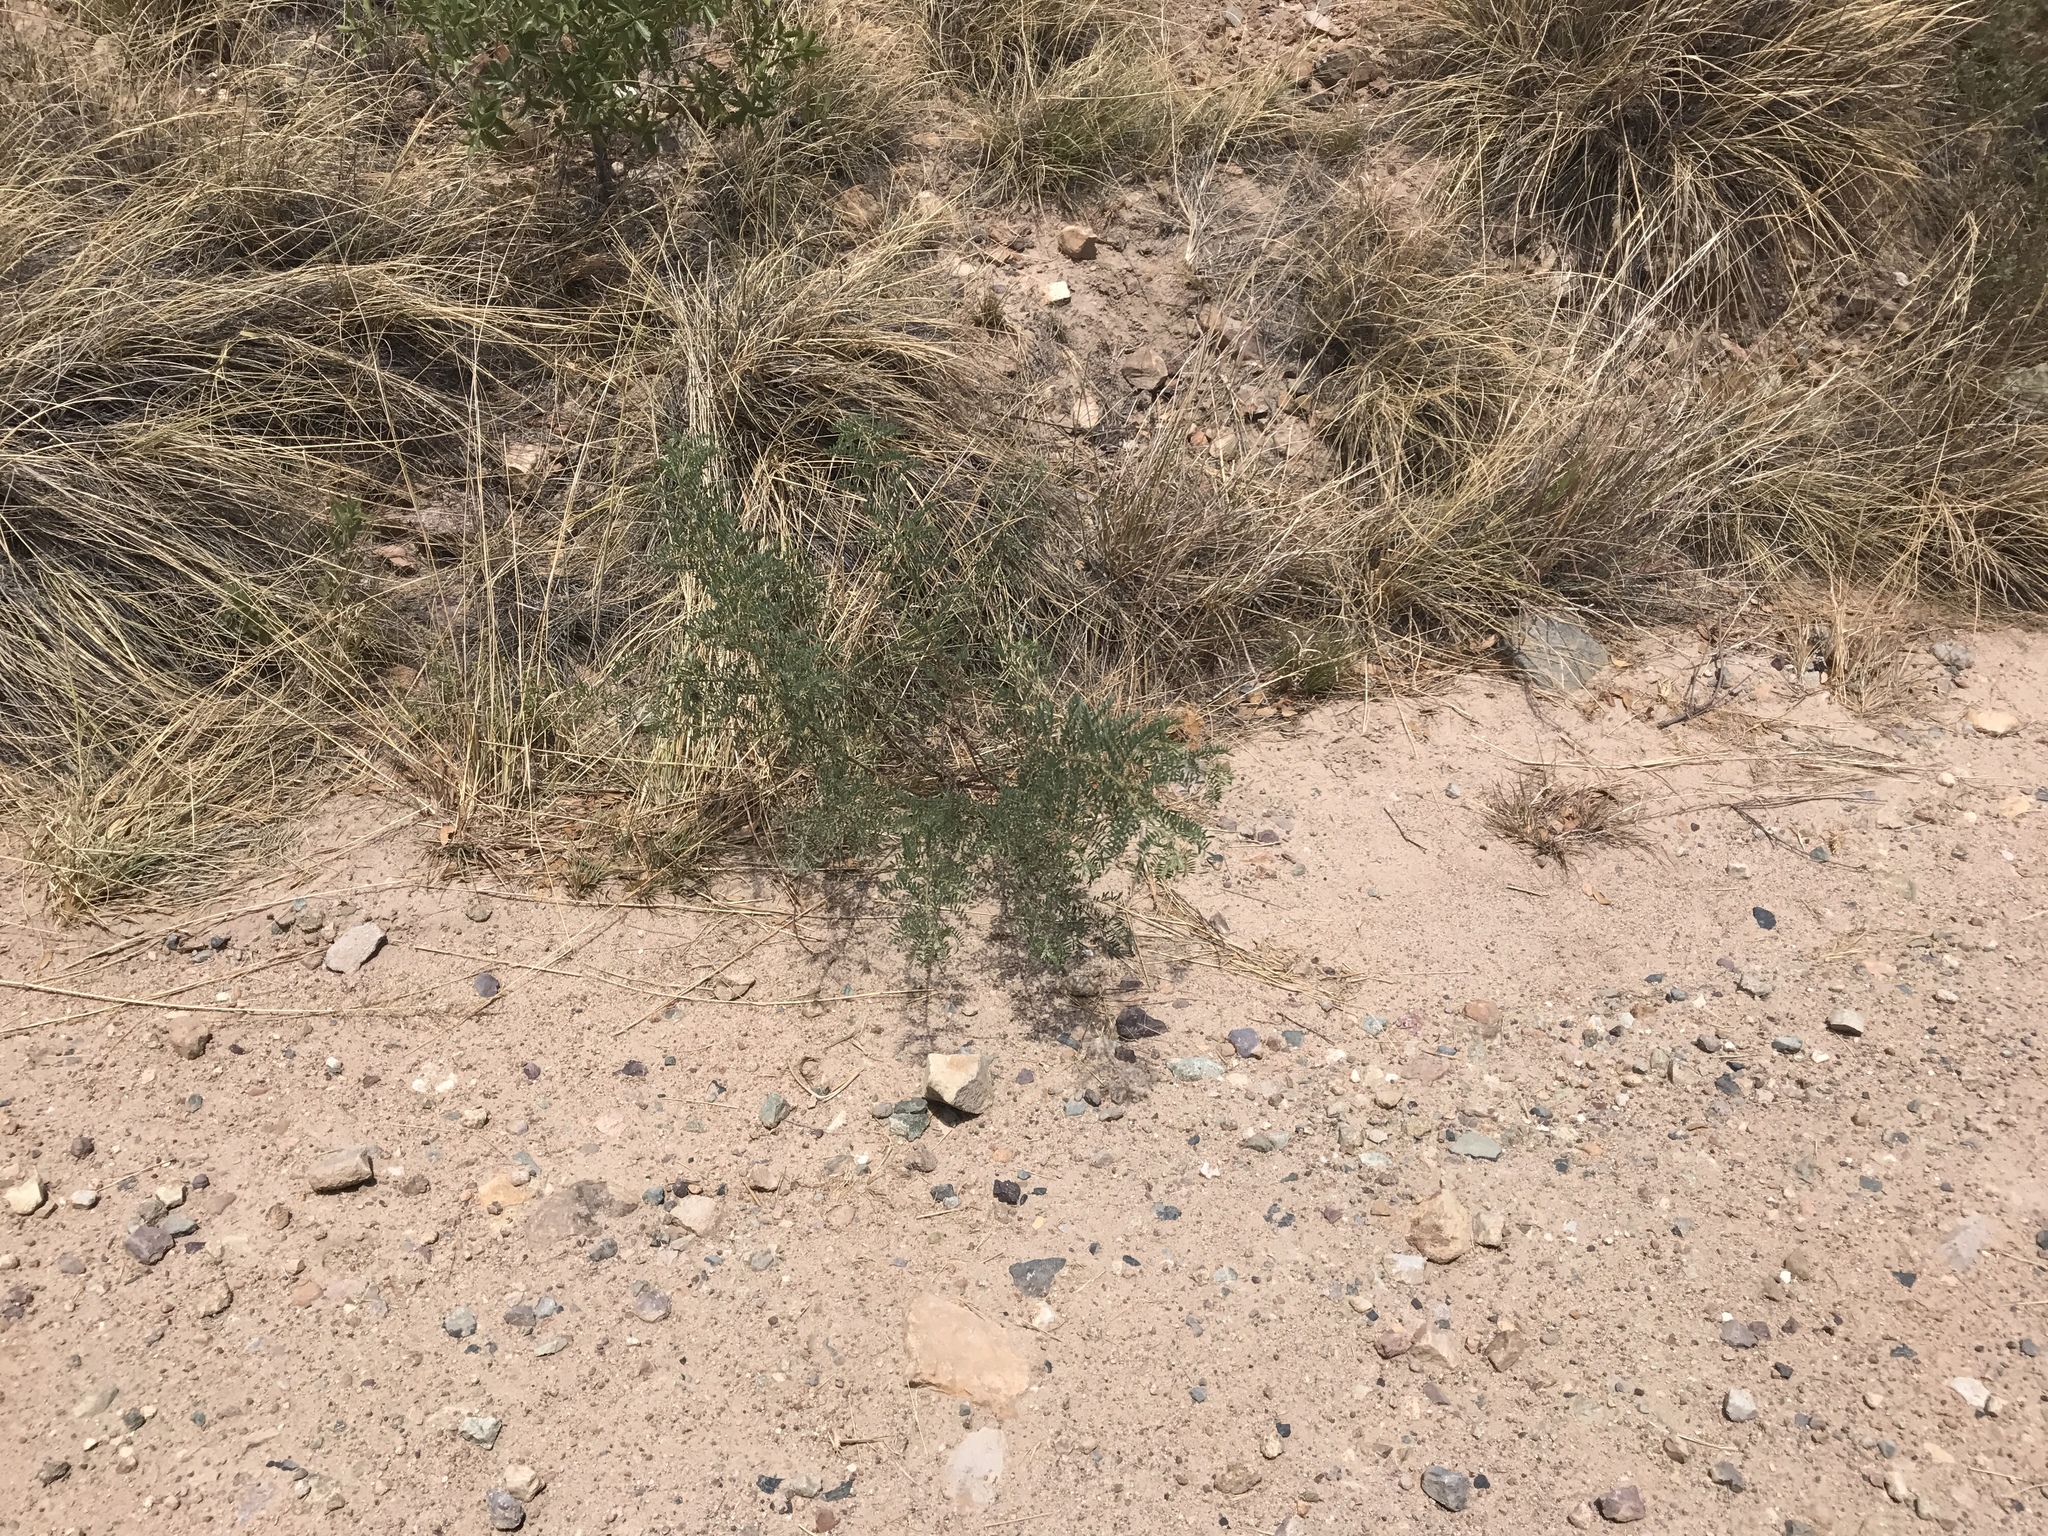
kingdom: Plantae
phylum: Tracheophyta
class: Magnoliopsida
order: Fabales
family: Fabaceae
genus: Senegalia
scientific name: Senegalia greggii
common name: Texas-mimosa
